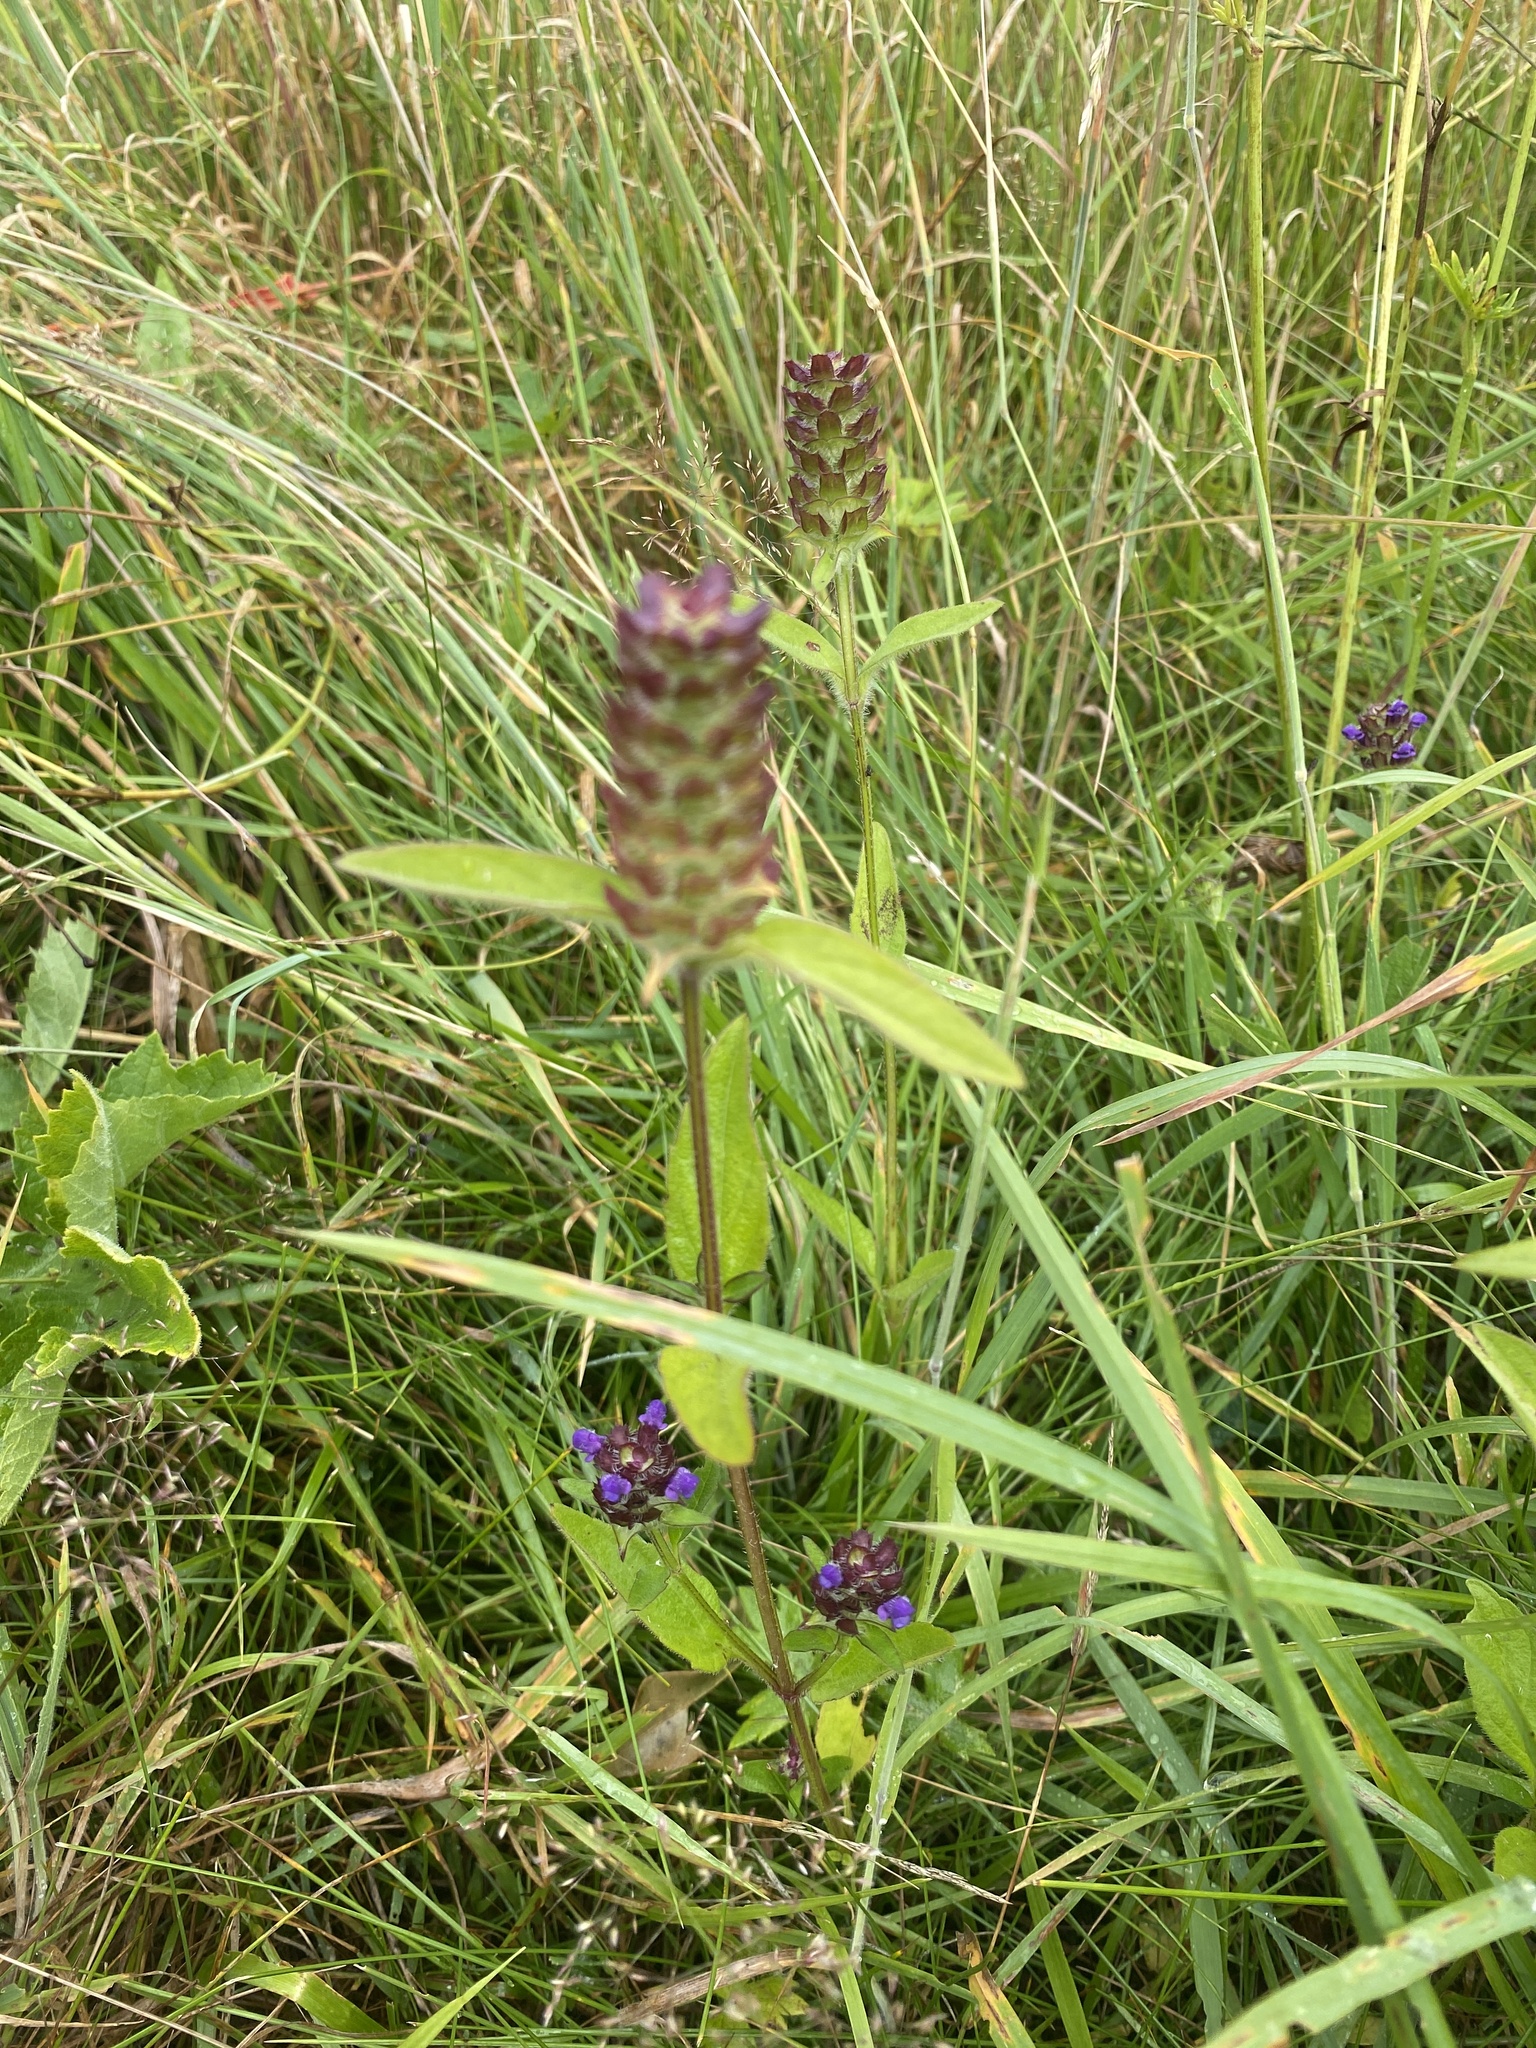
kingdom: Plantae
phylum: Tracheophyta
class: Magnoliopsida
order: Lamiales
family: Lamiaceae
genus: Prunella
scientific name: Prunella vulgaris
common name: Heal-all
